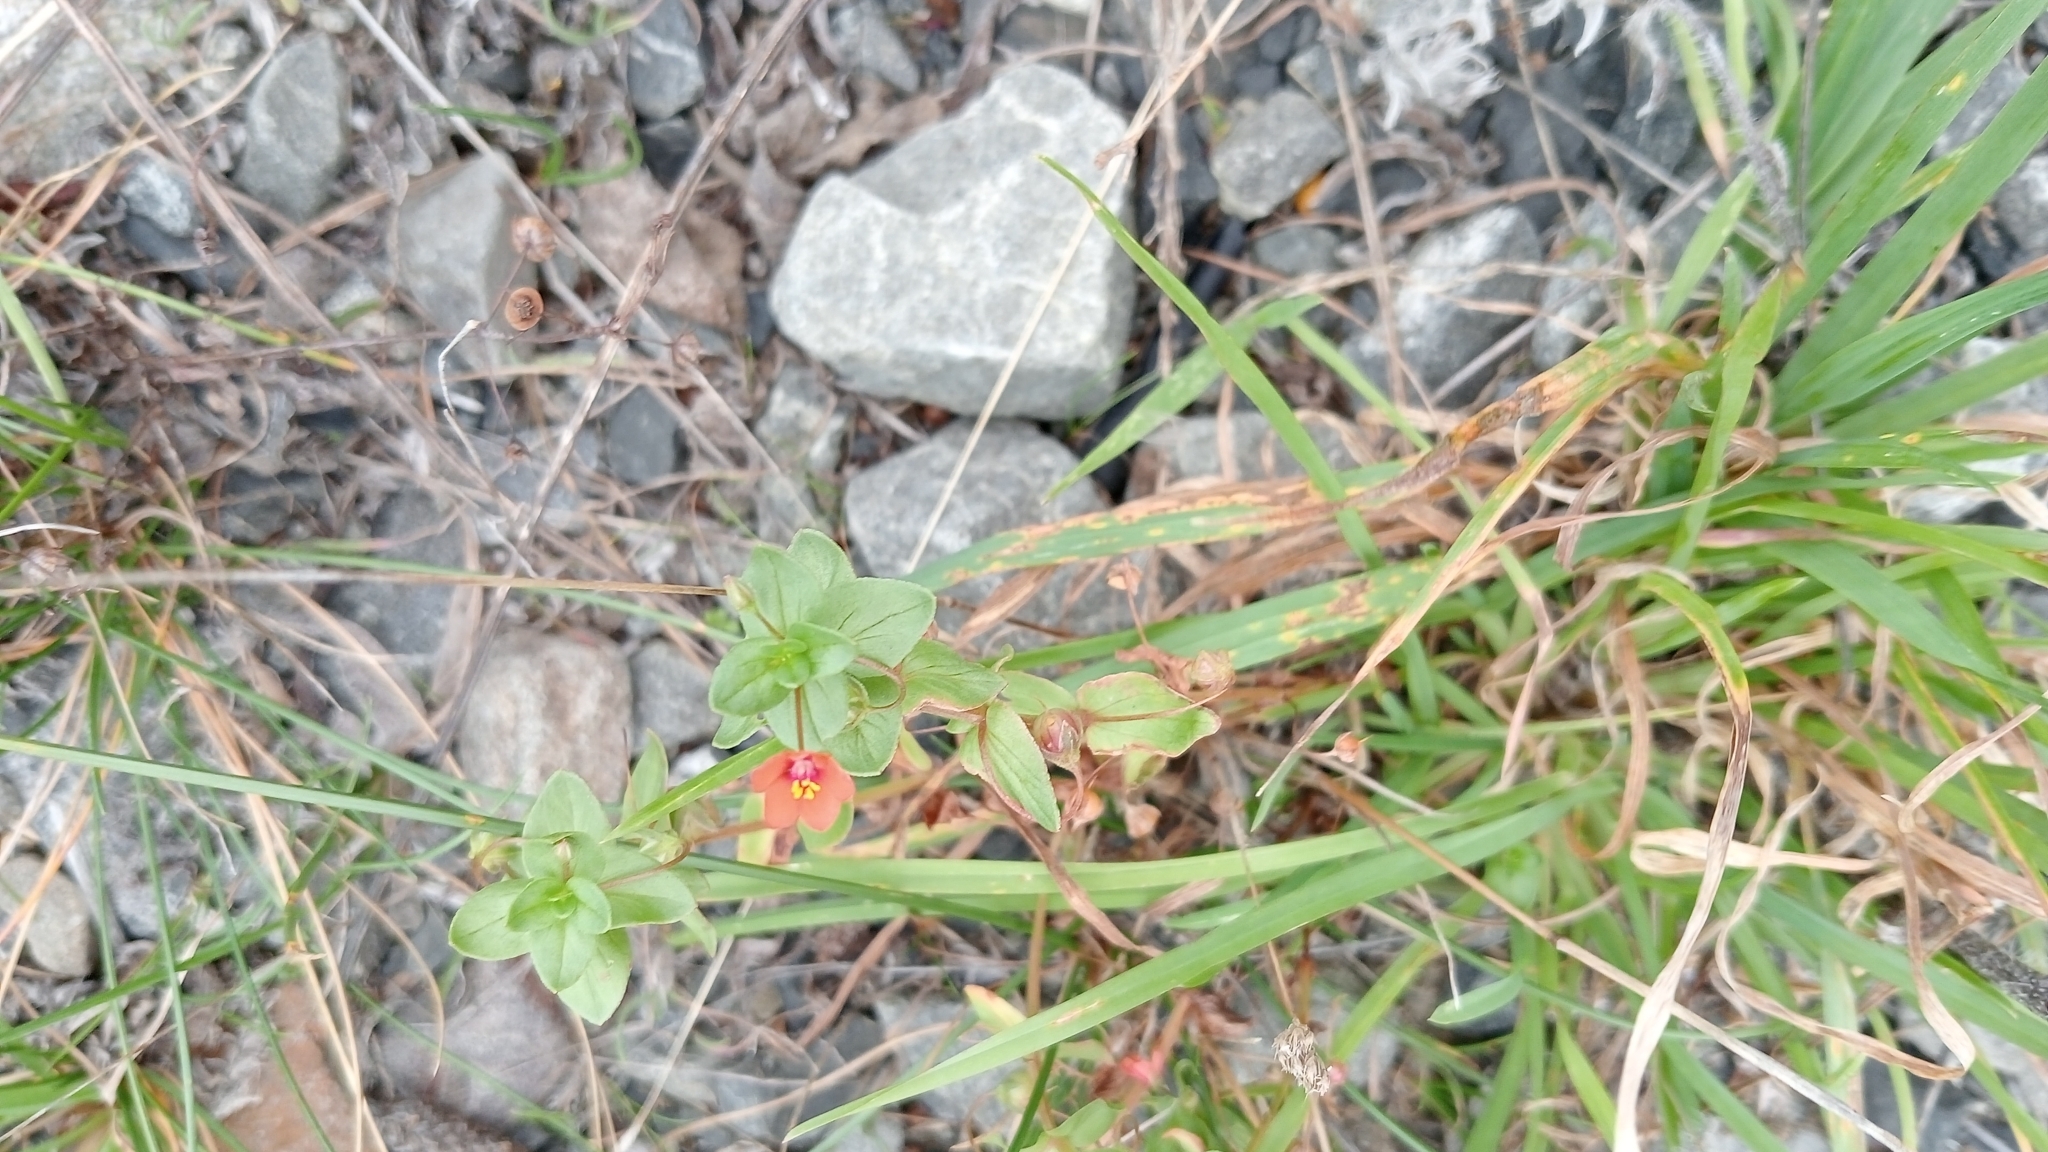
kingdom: Plantae
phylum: Tracheophyta
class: Magnoliopsida
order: Ericales
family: Primulaceae
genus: Lysimachia
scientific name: Lysimachia arvensis
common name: Scarlet pimpernel
